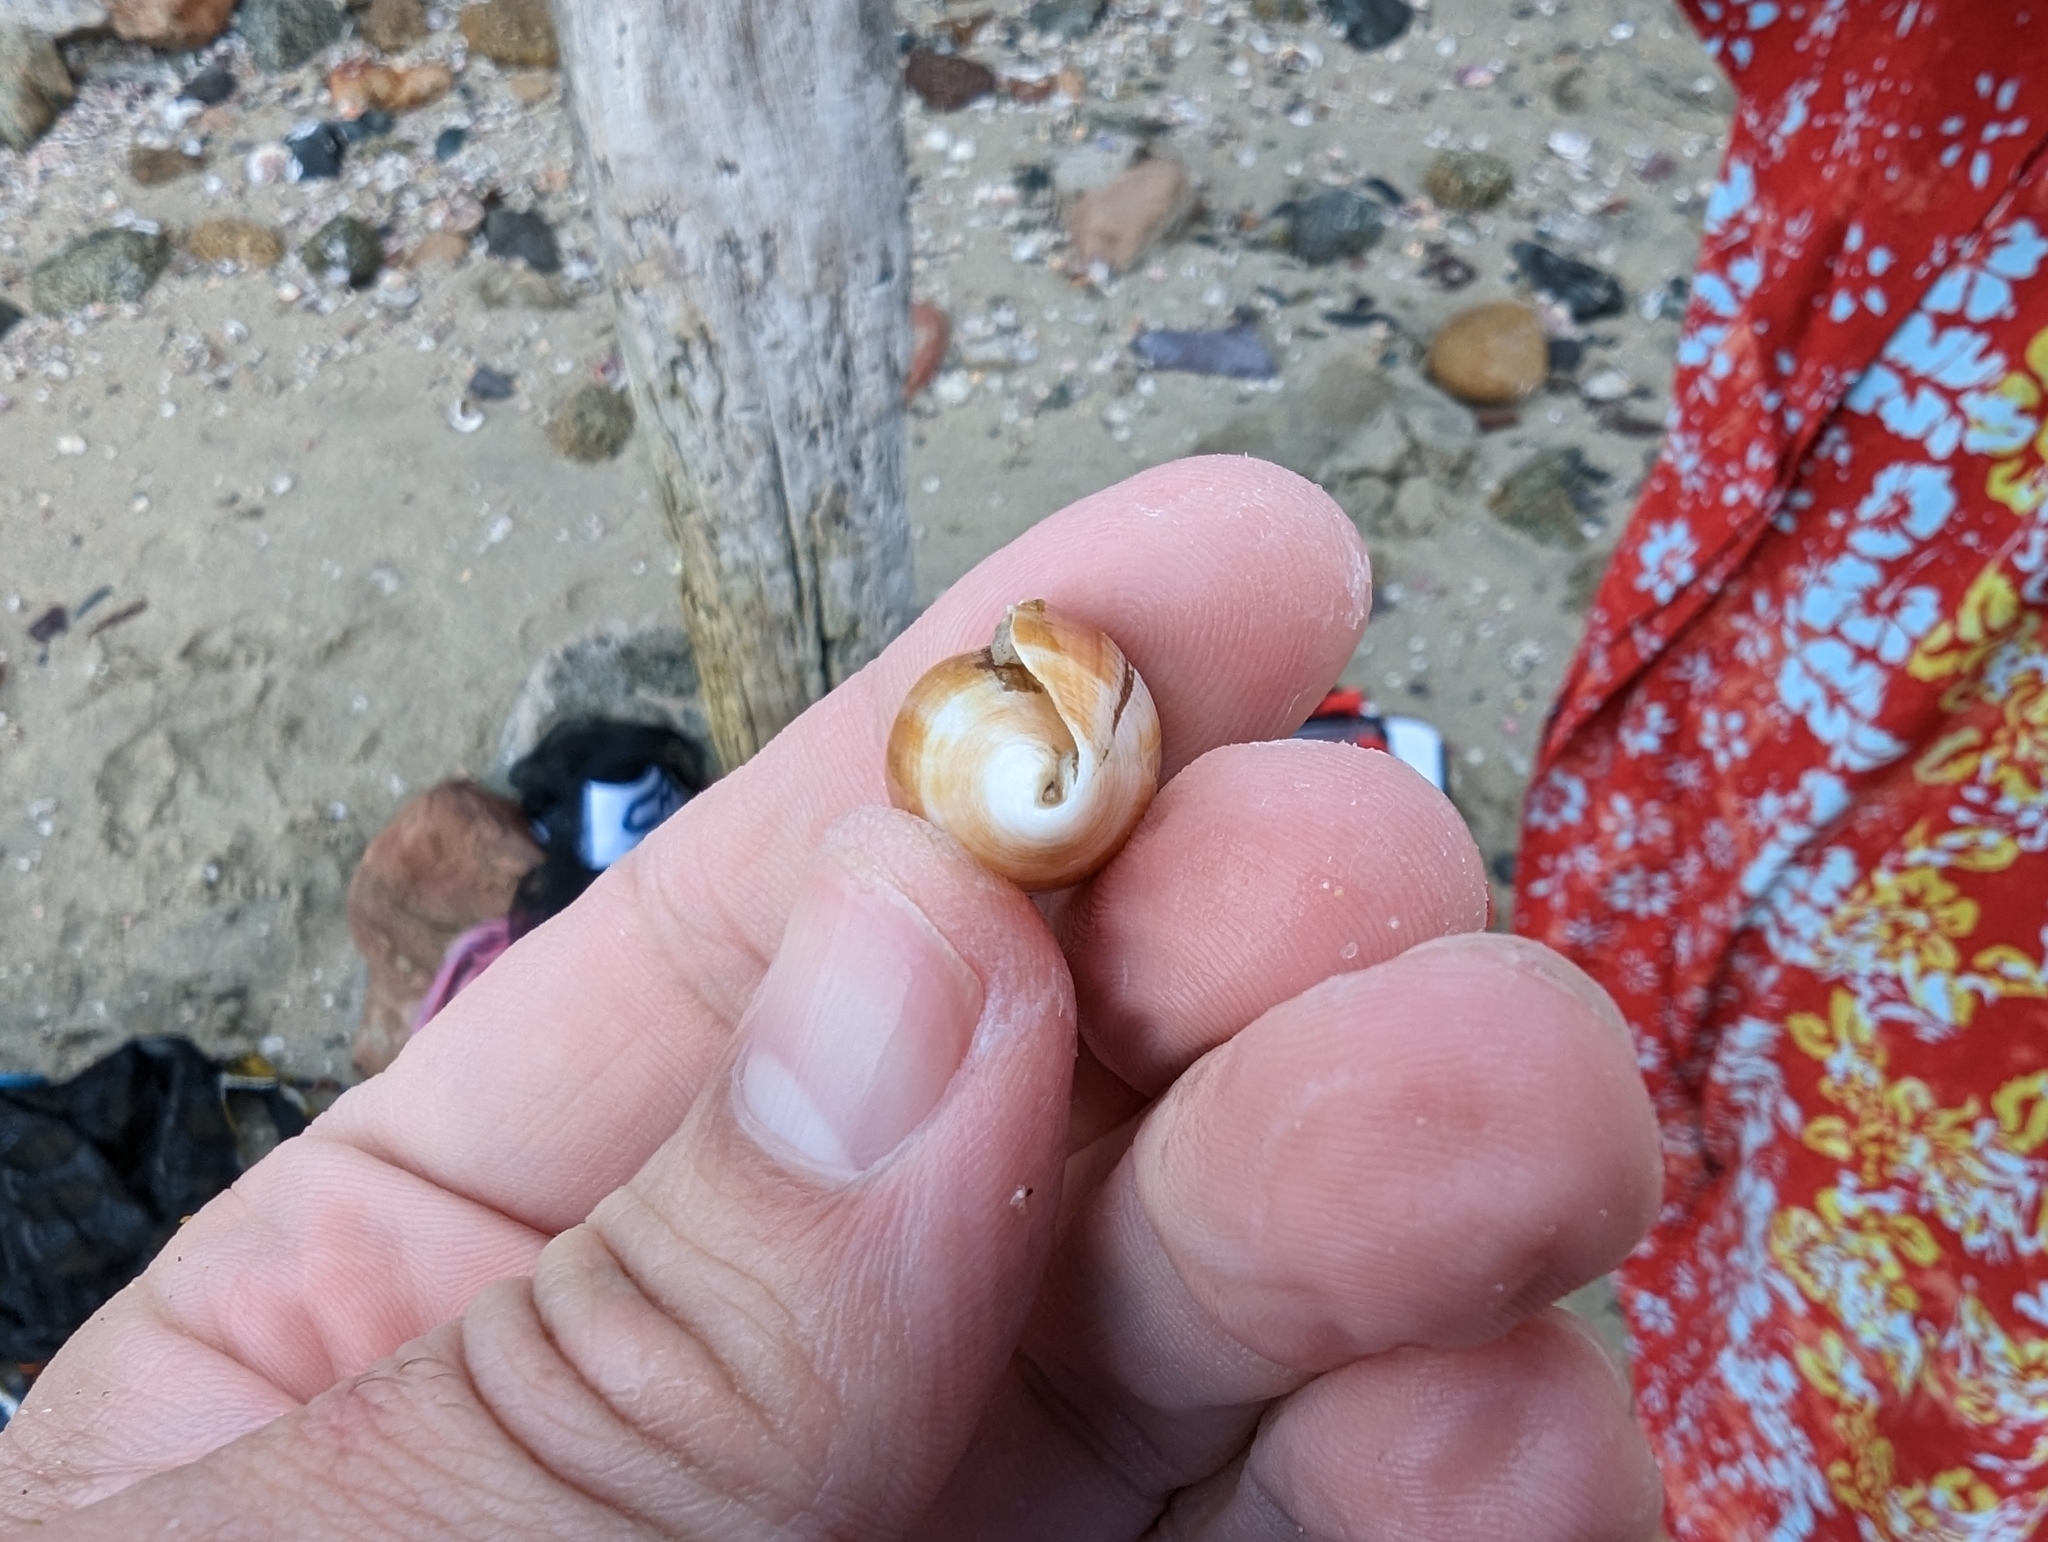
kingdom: Animalia
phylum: Mollusca
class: Gastropoda
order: Neogastropoda
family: Conidae
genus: Conus
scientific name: Conus gladiator
